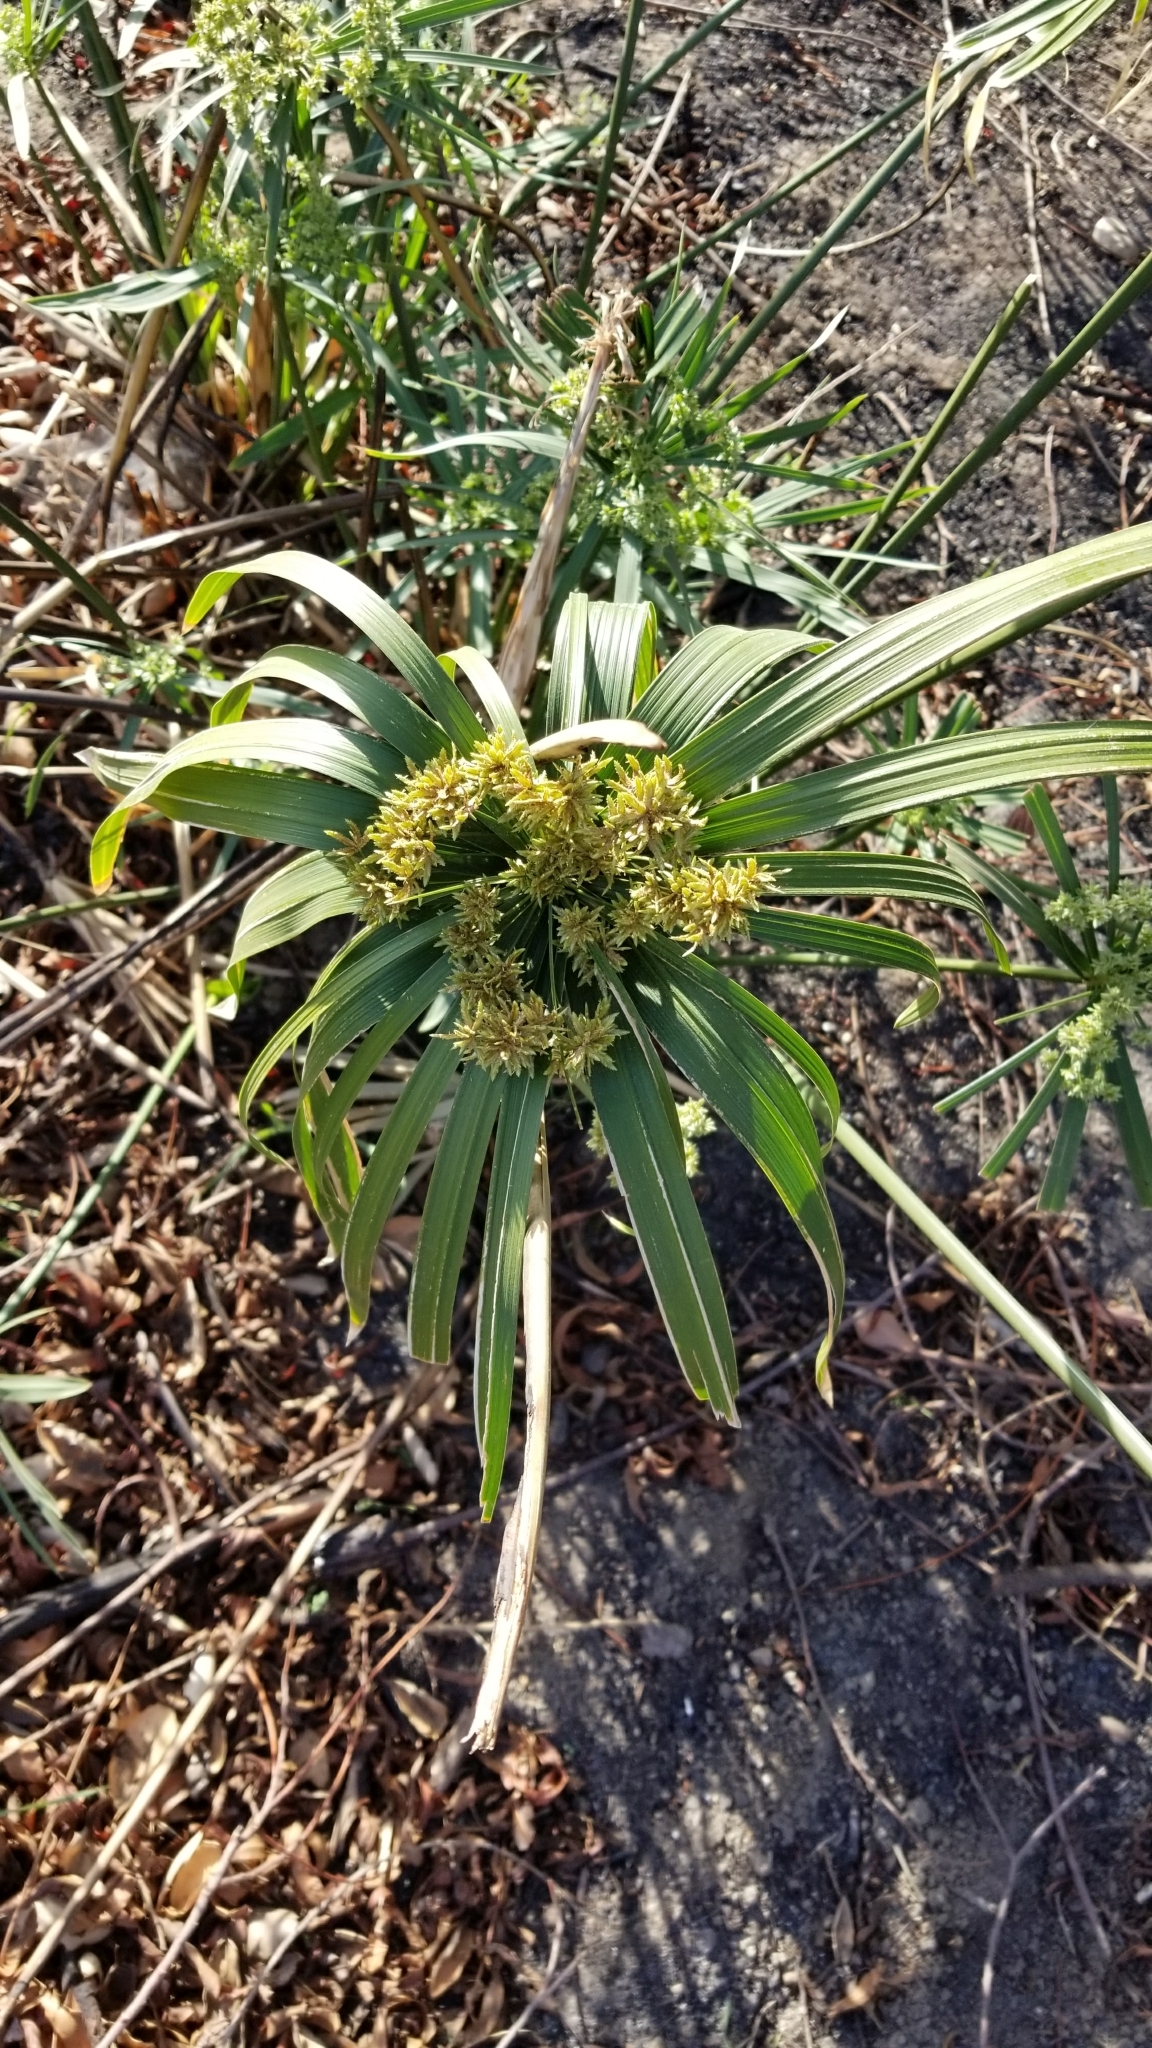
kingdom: Plantae
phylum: Tracheophyta
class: Liliopsida
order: Poales
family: Cyperaceae
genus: Cyperus
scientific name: Cyperus alternifolius
